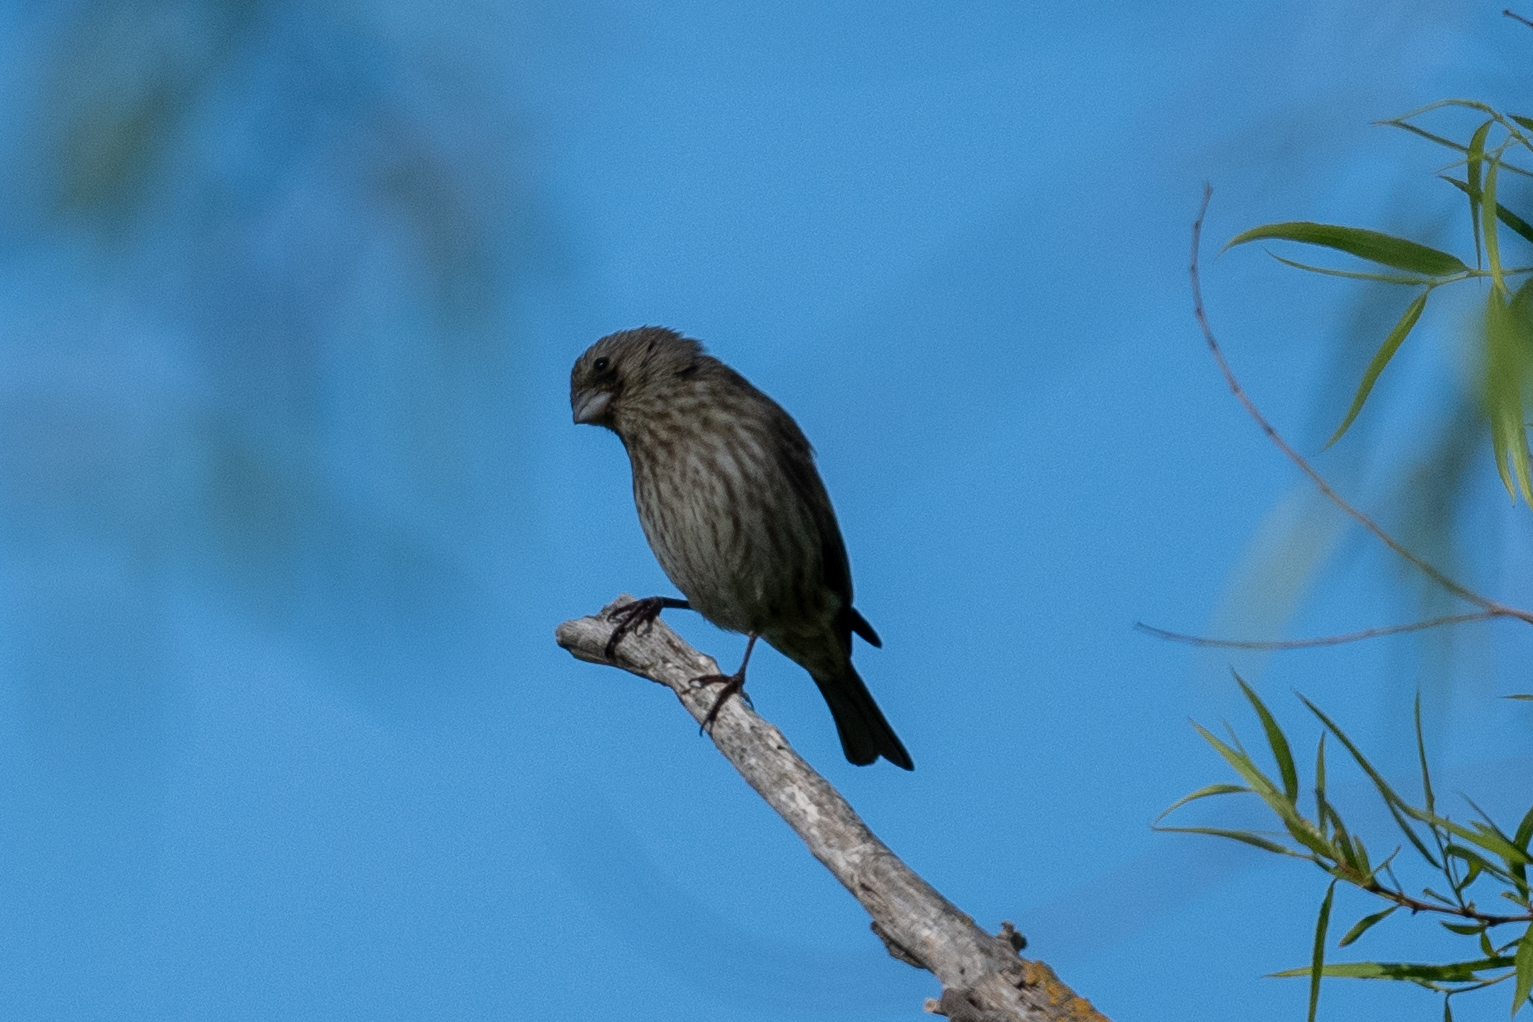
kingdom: Animalia
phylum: Chordata
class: Aves
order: Passeriformes
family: Fringillidae
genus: Haemorhous
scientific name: Haemorhous mexicanus
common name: House finch
